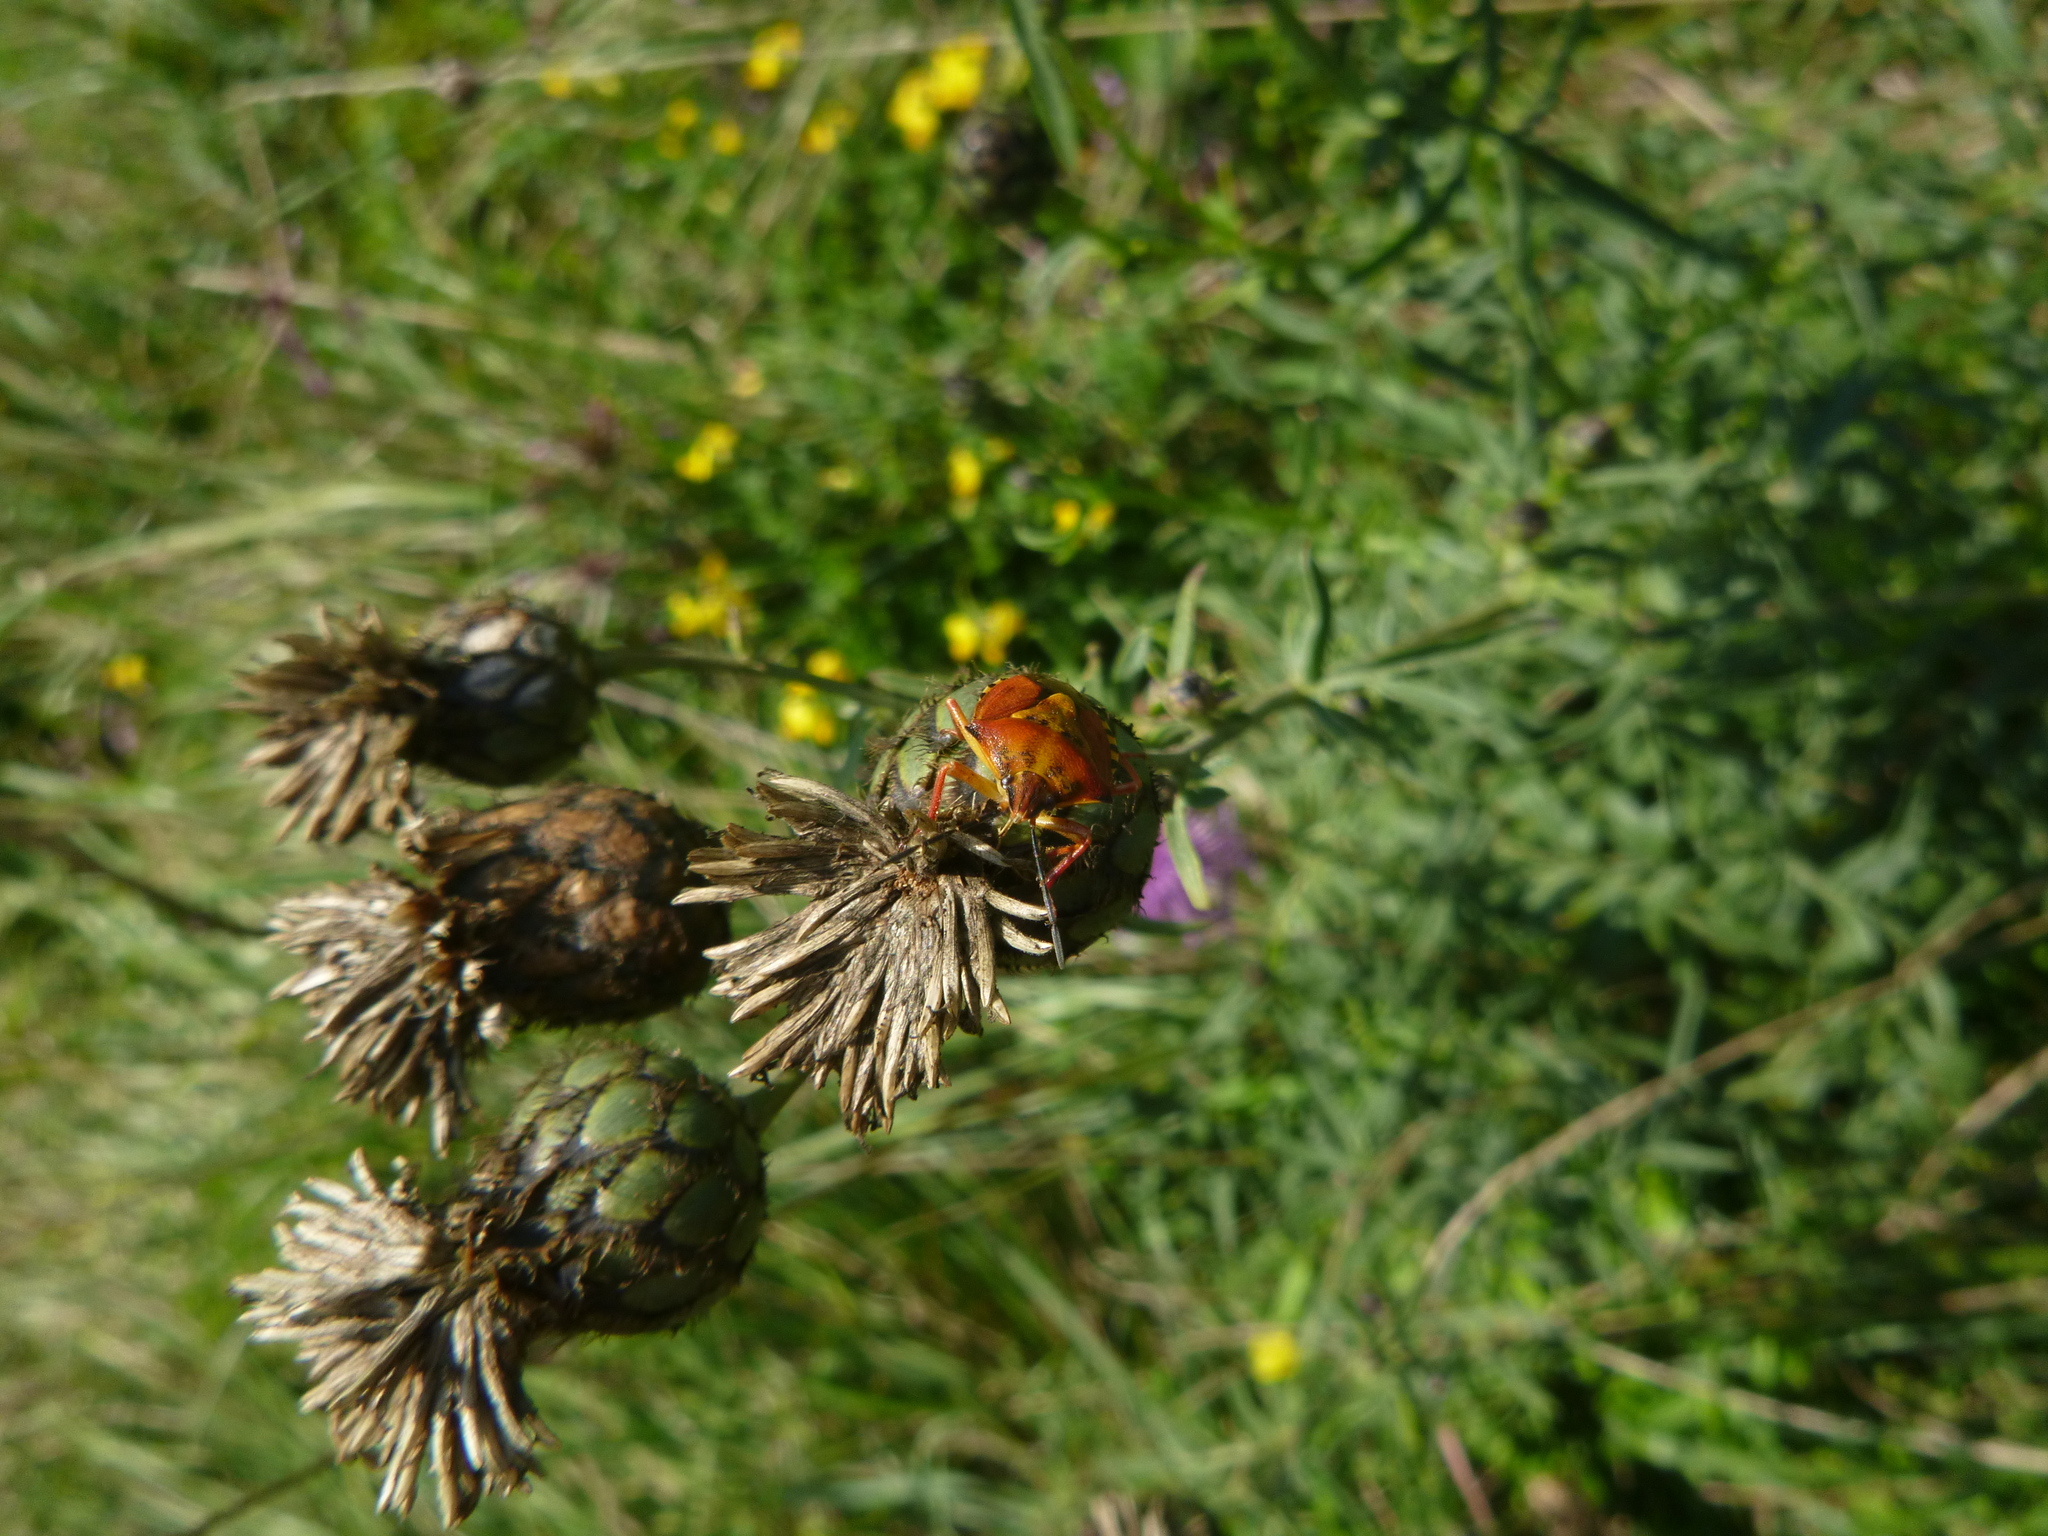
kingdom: Animalia
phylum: Arthropoda
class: Insecta
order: Hemiptera
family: Pentatomidae
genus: Carpocoris
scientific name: Carpocoris purpureipennis
